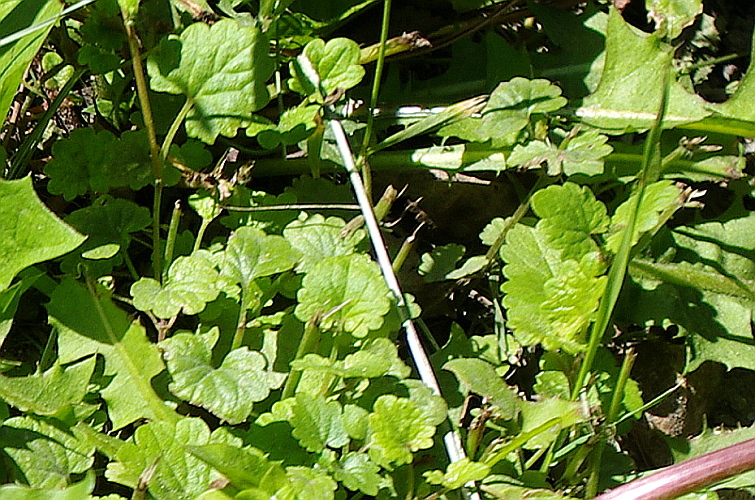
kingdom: Plantae
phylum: Tracheophyta
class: Magnoliopsida
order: Lamiales
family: Lamiaceae
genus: Glechoma
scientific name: Glechoma hederacea
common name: Ground ivy
